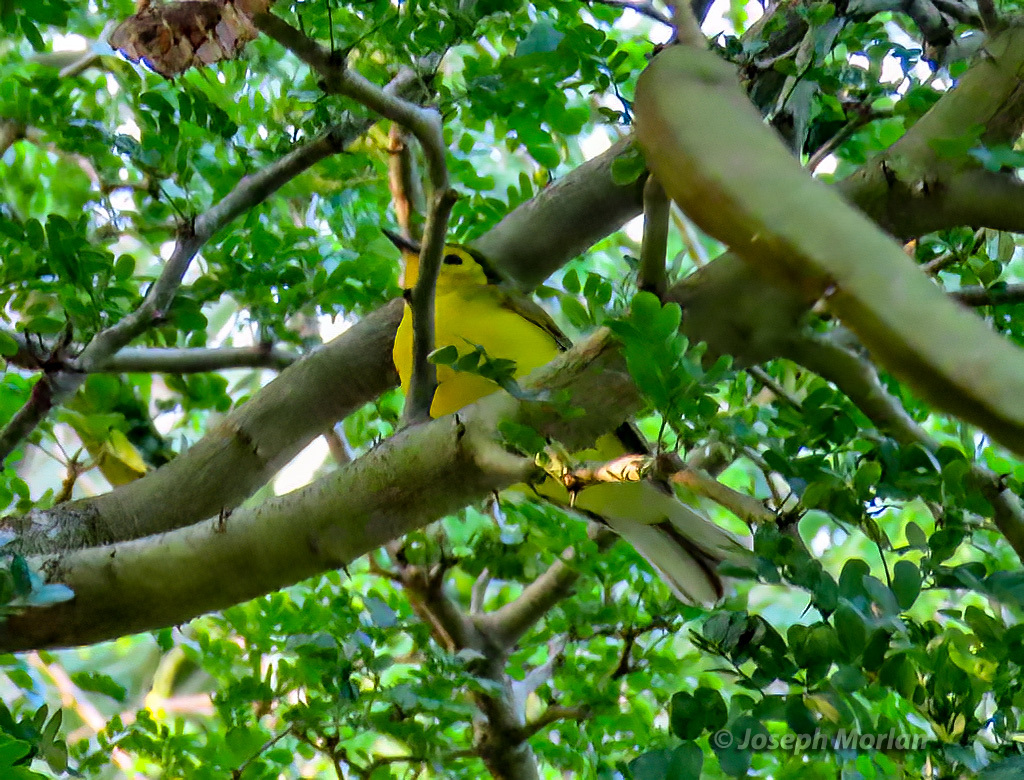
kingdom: Animalia
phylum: Chordata
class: Aves
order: Passeriformes
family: Parulidae
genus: Setophaga
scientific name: Setophaga citrina
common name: Hooded warbler
